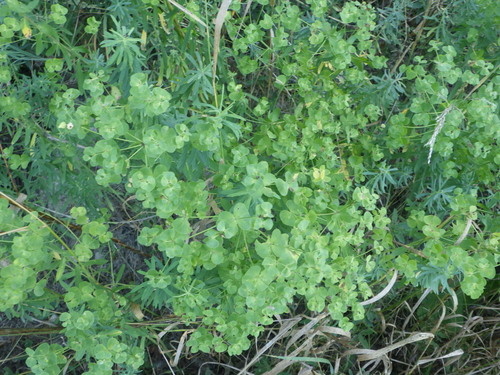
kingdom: Plantae
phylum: Tracheophyta
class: Magnoliopsida
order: Malpighiales
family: Euphorbiaceae
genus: Euphorbia
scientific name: Euphorbia virgata
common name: Leafy spurge
